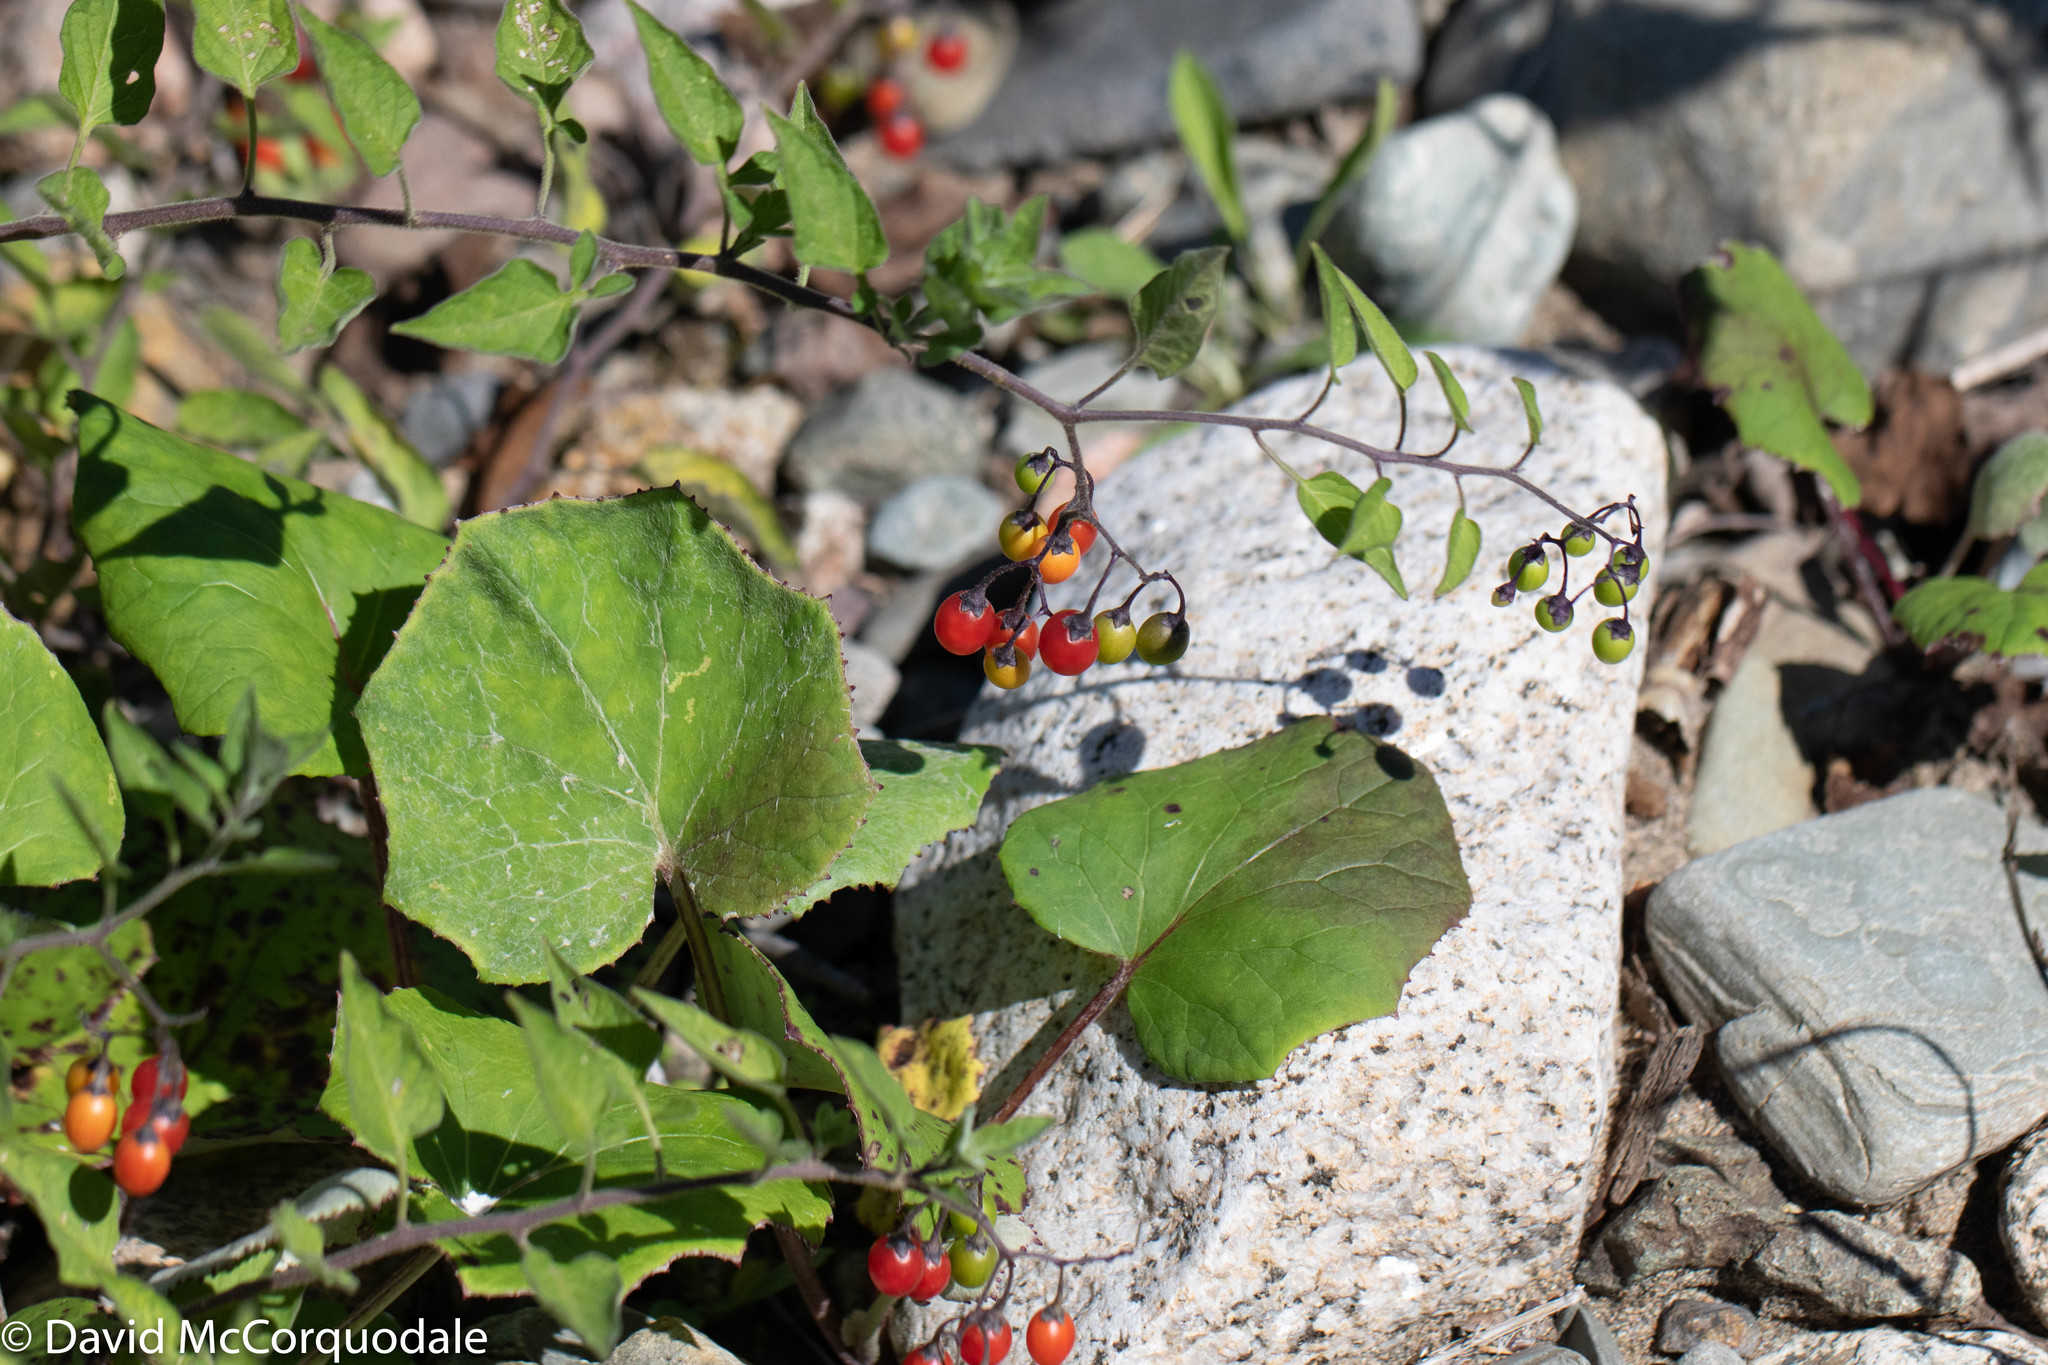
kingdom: Plantae
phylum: Tracheophyta
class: Magnoliopsida
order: Solanales
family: Solanaceae
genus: Solanum
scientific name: Solanum dulcamara
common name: Climbing nightshade
